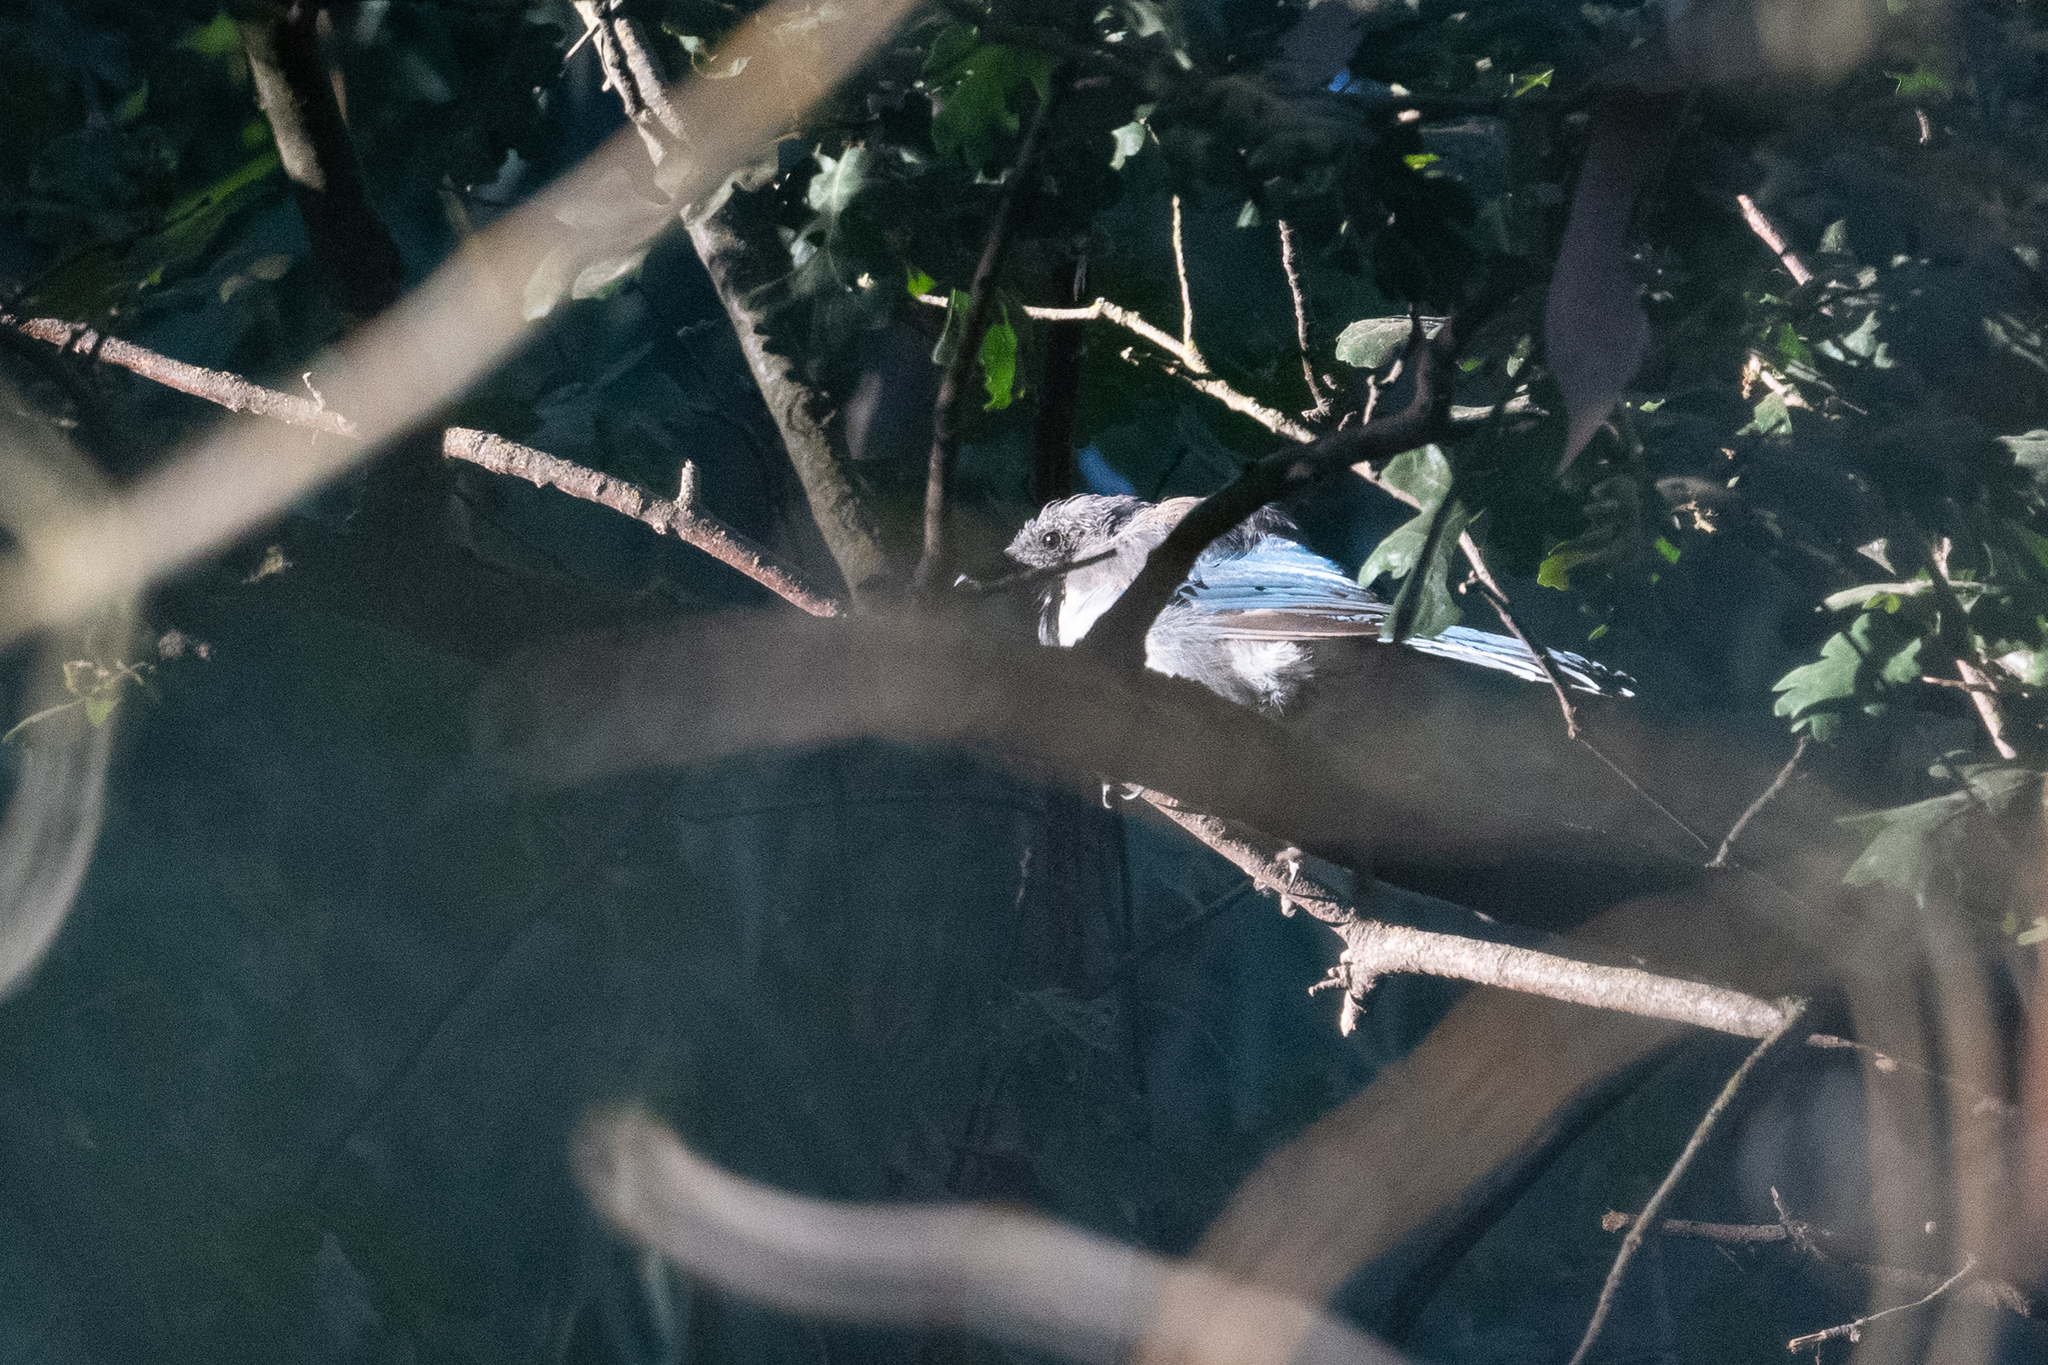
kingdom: Animalia
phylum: Chordata
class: Aves
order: Passeriformes
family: Corvidae
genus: Aphelocoma
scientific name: Aphelocoma californica
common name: California scrub-jay
